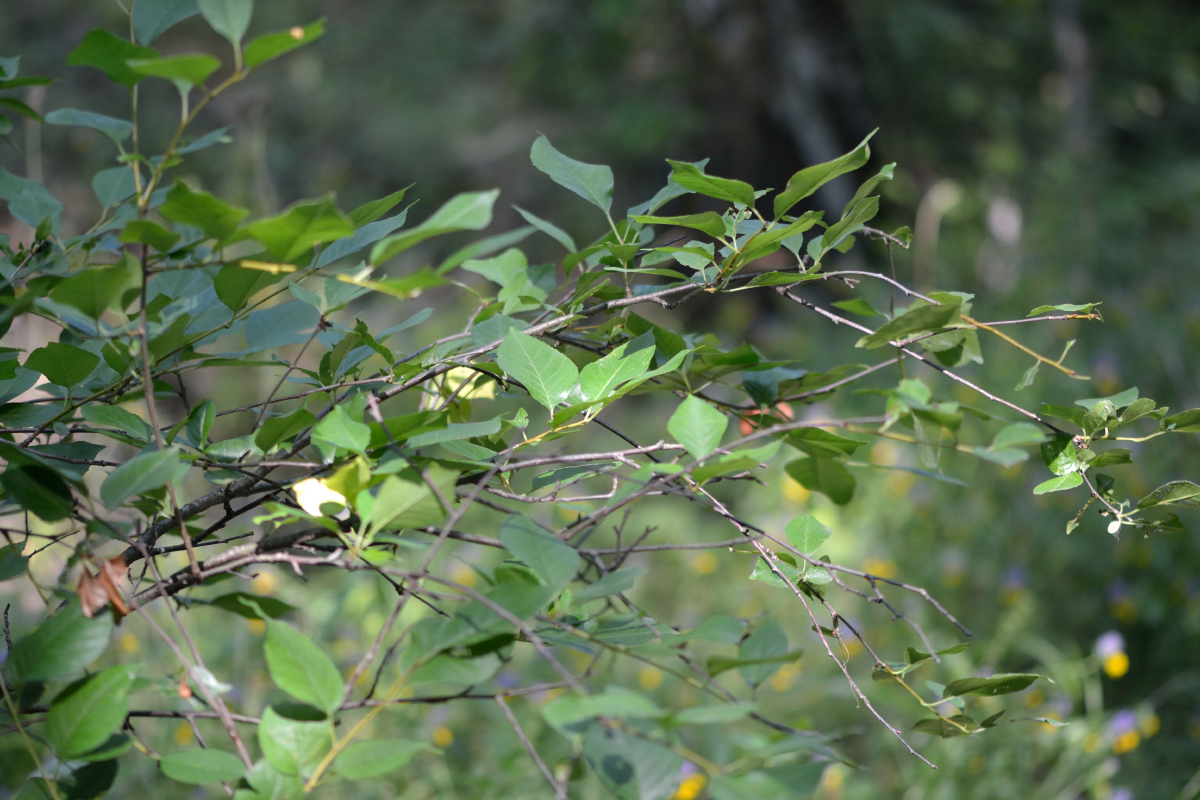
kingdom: Plantae
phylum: Tracheophyta
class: Magnoliopsida
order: Rosales
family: Rosaceae
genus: Prunus
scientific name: Prunus cerasus
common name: Morello cherry
